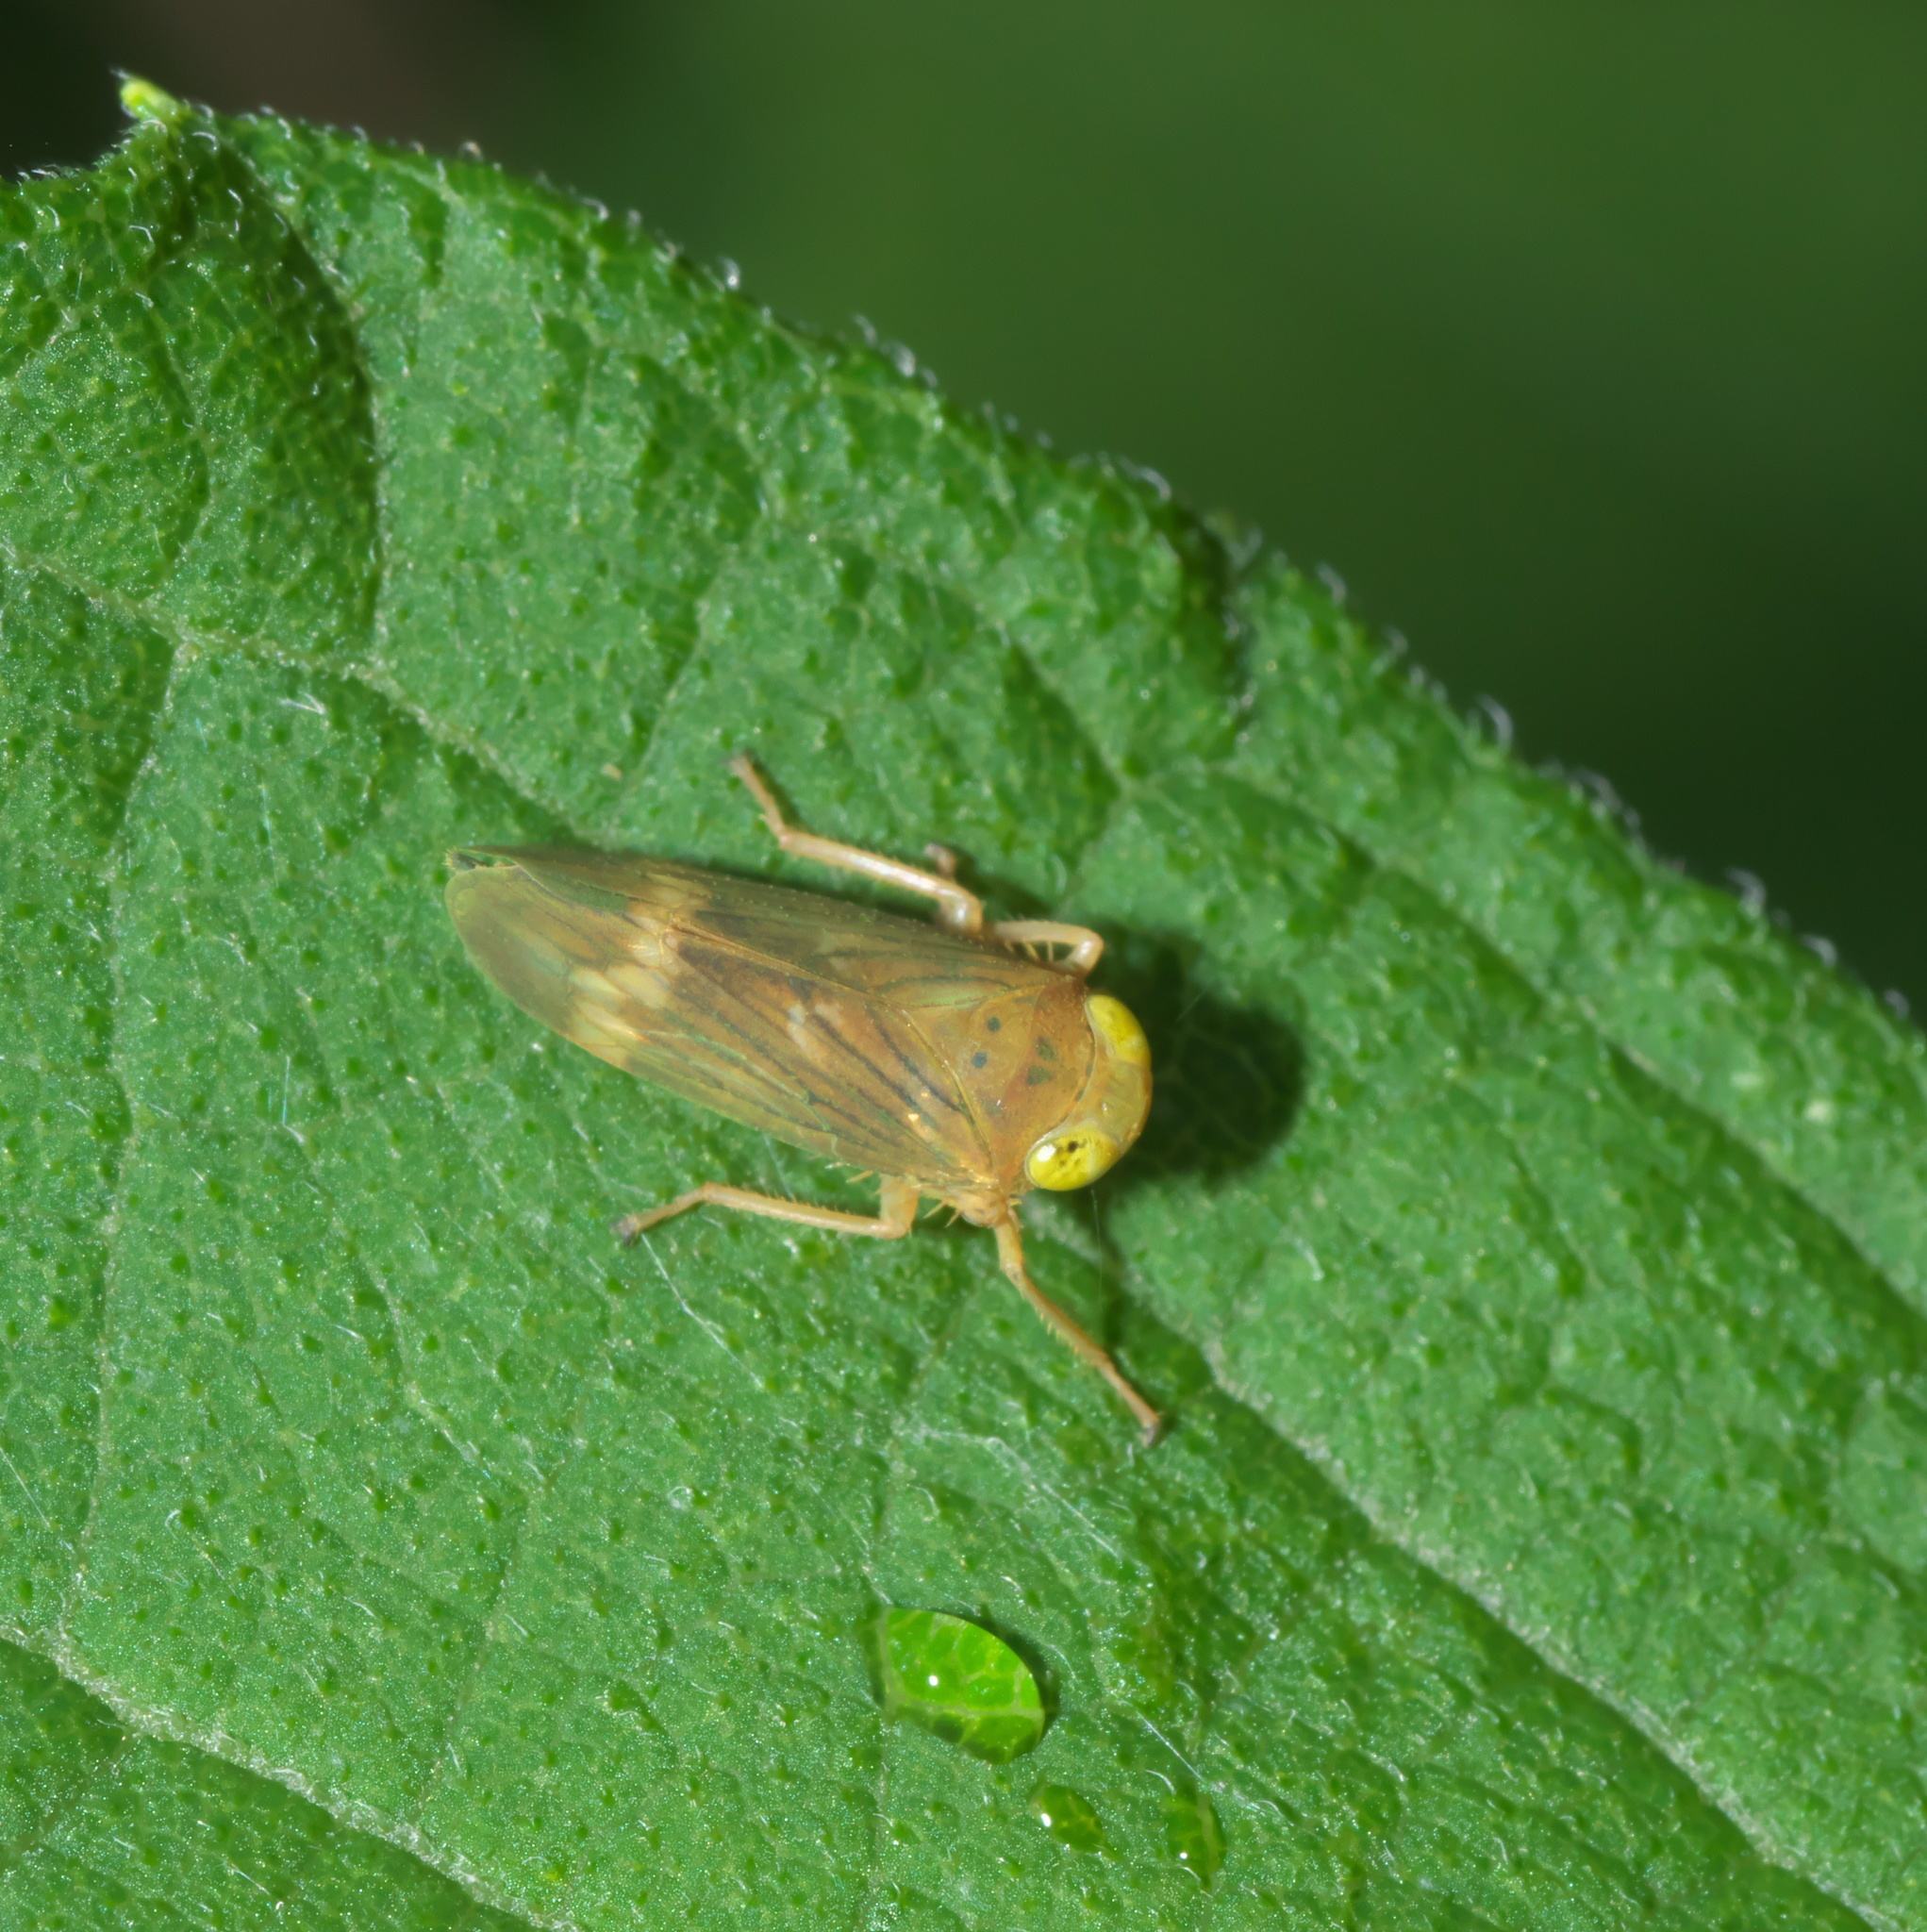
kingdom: Animalia
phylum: Arthropoda
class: Insecta
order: Hemiptera
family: Cicadellidae
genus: Jikradia
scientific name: Jikradia olitoria
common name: Coppery leafhopper
